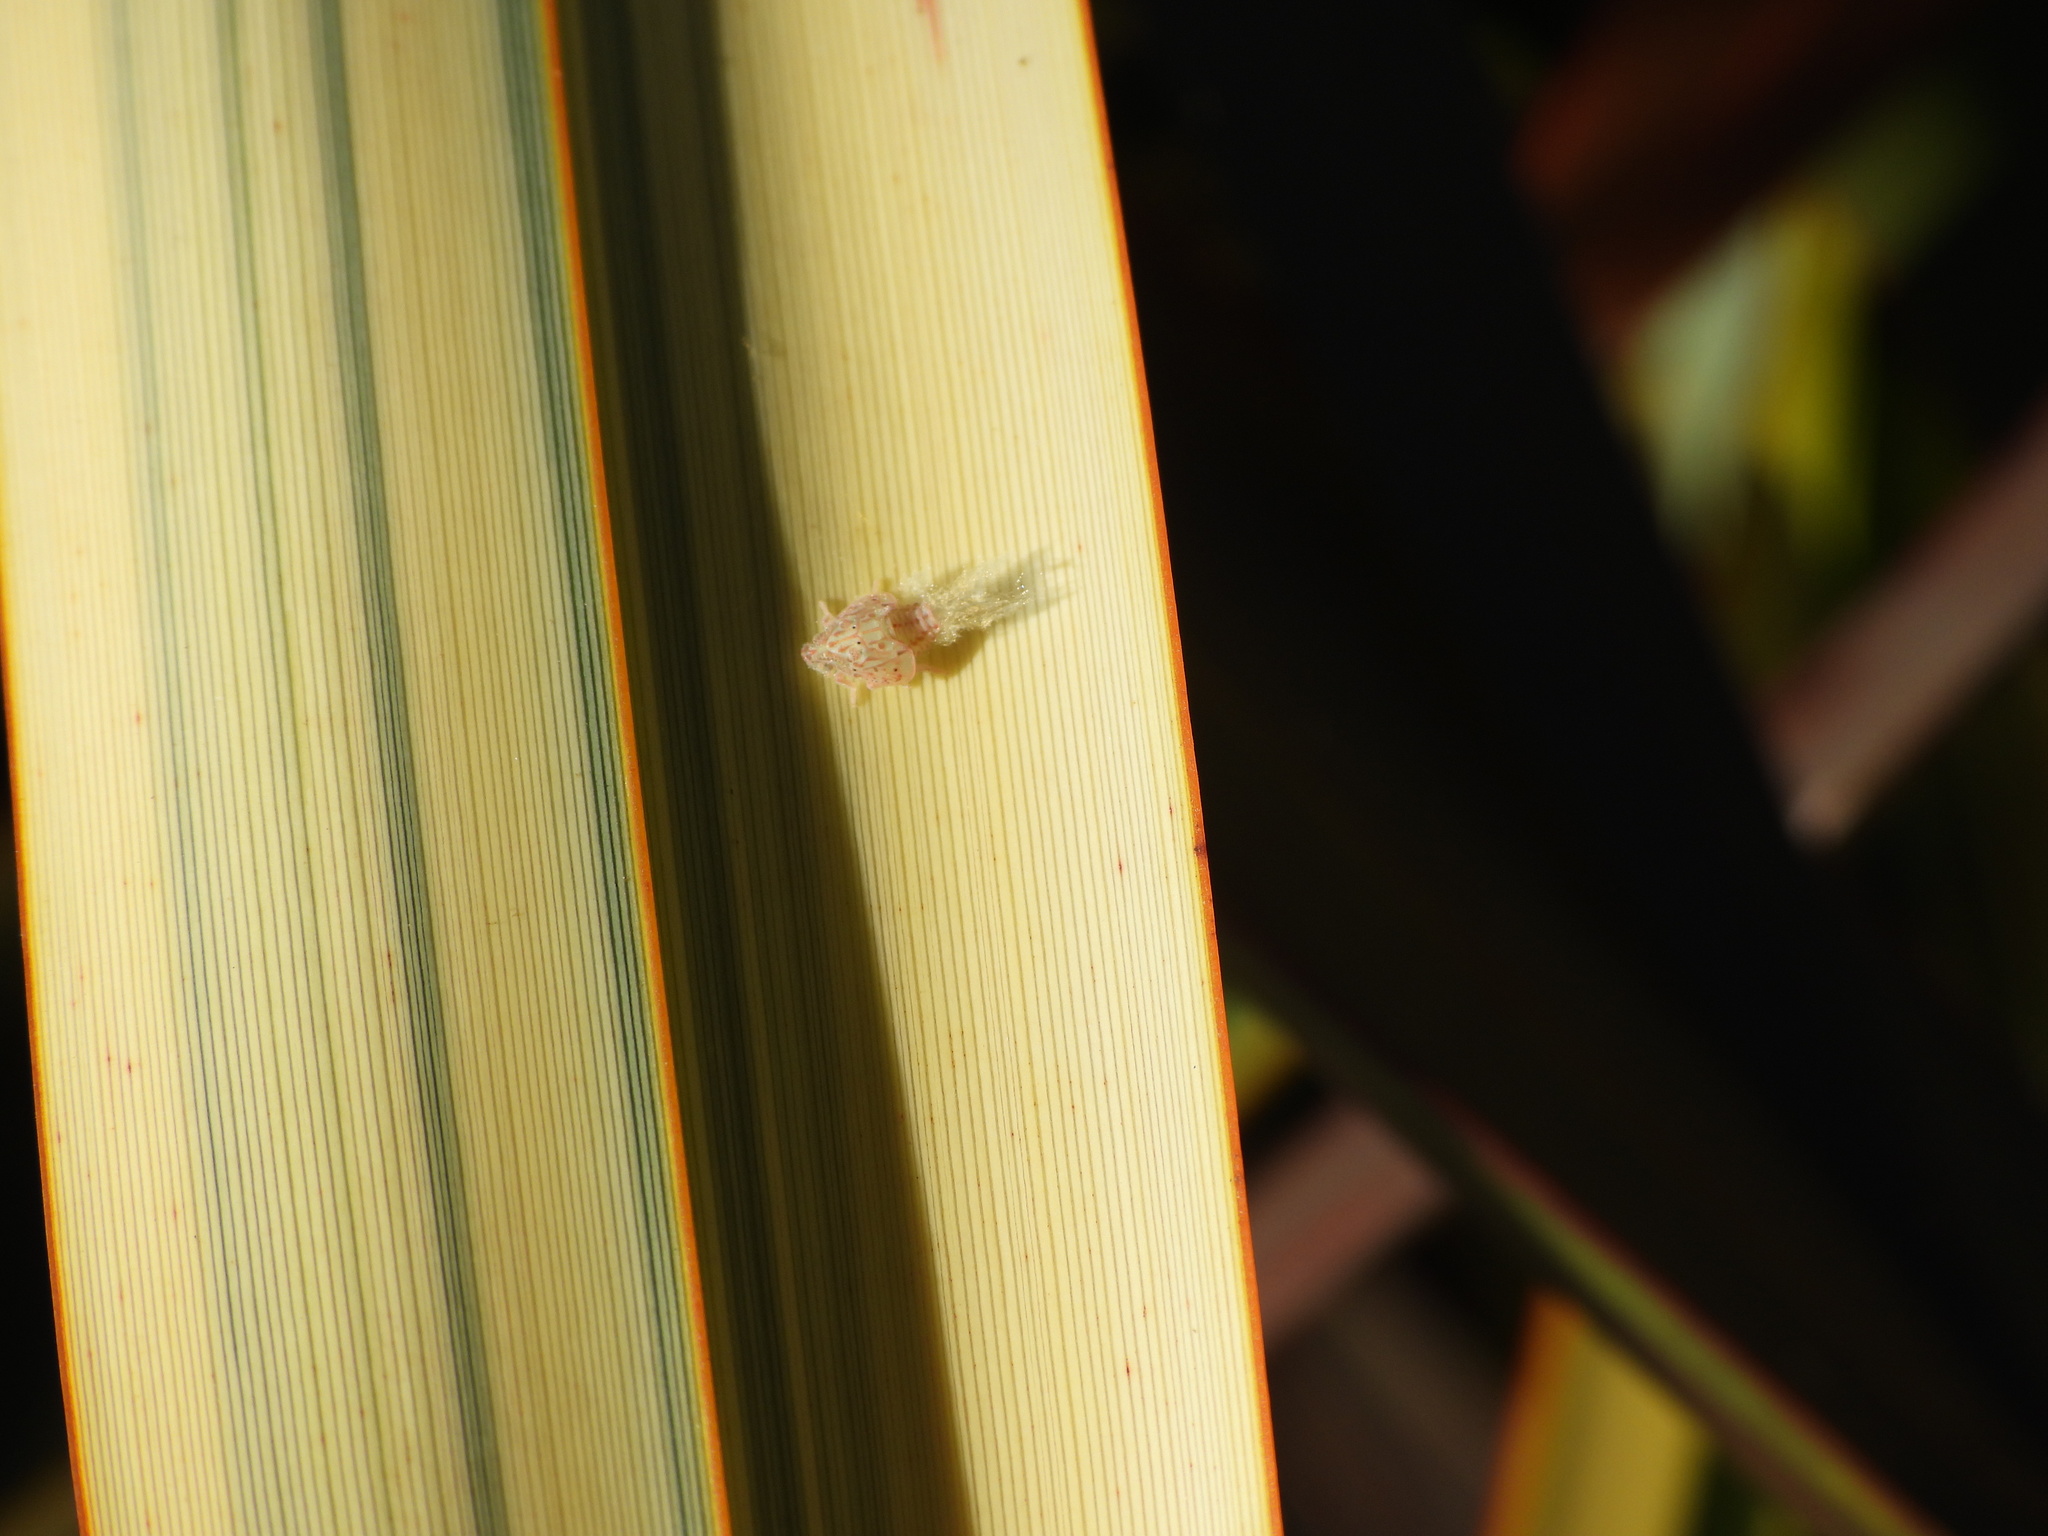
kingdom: Animalia
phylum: Arthropoda
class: Insecta
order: Hemiptera
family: Flatidae
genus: Siphanta
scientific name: Siphanta acuta
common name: Torpedo bug
